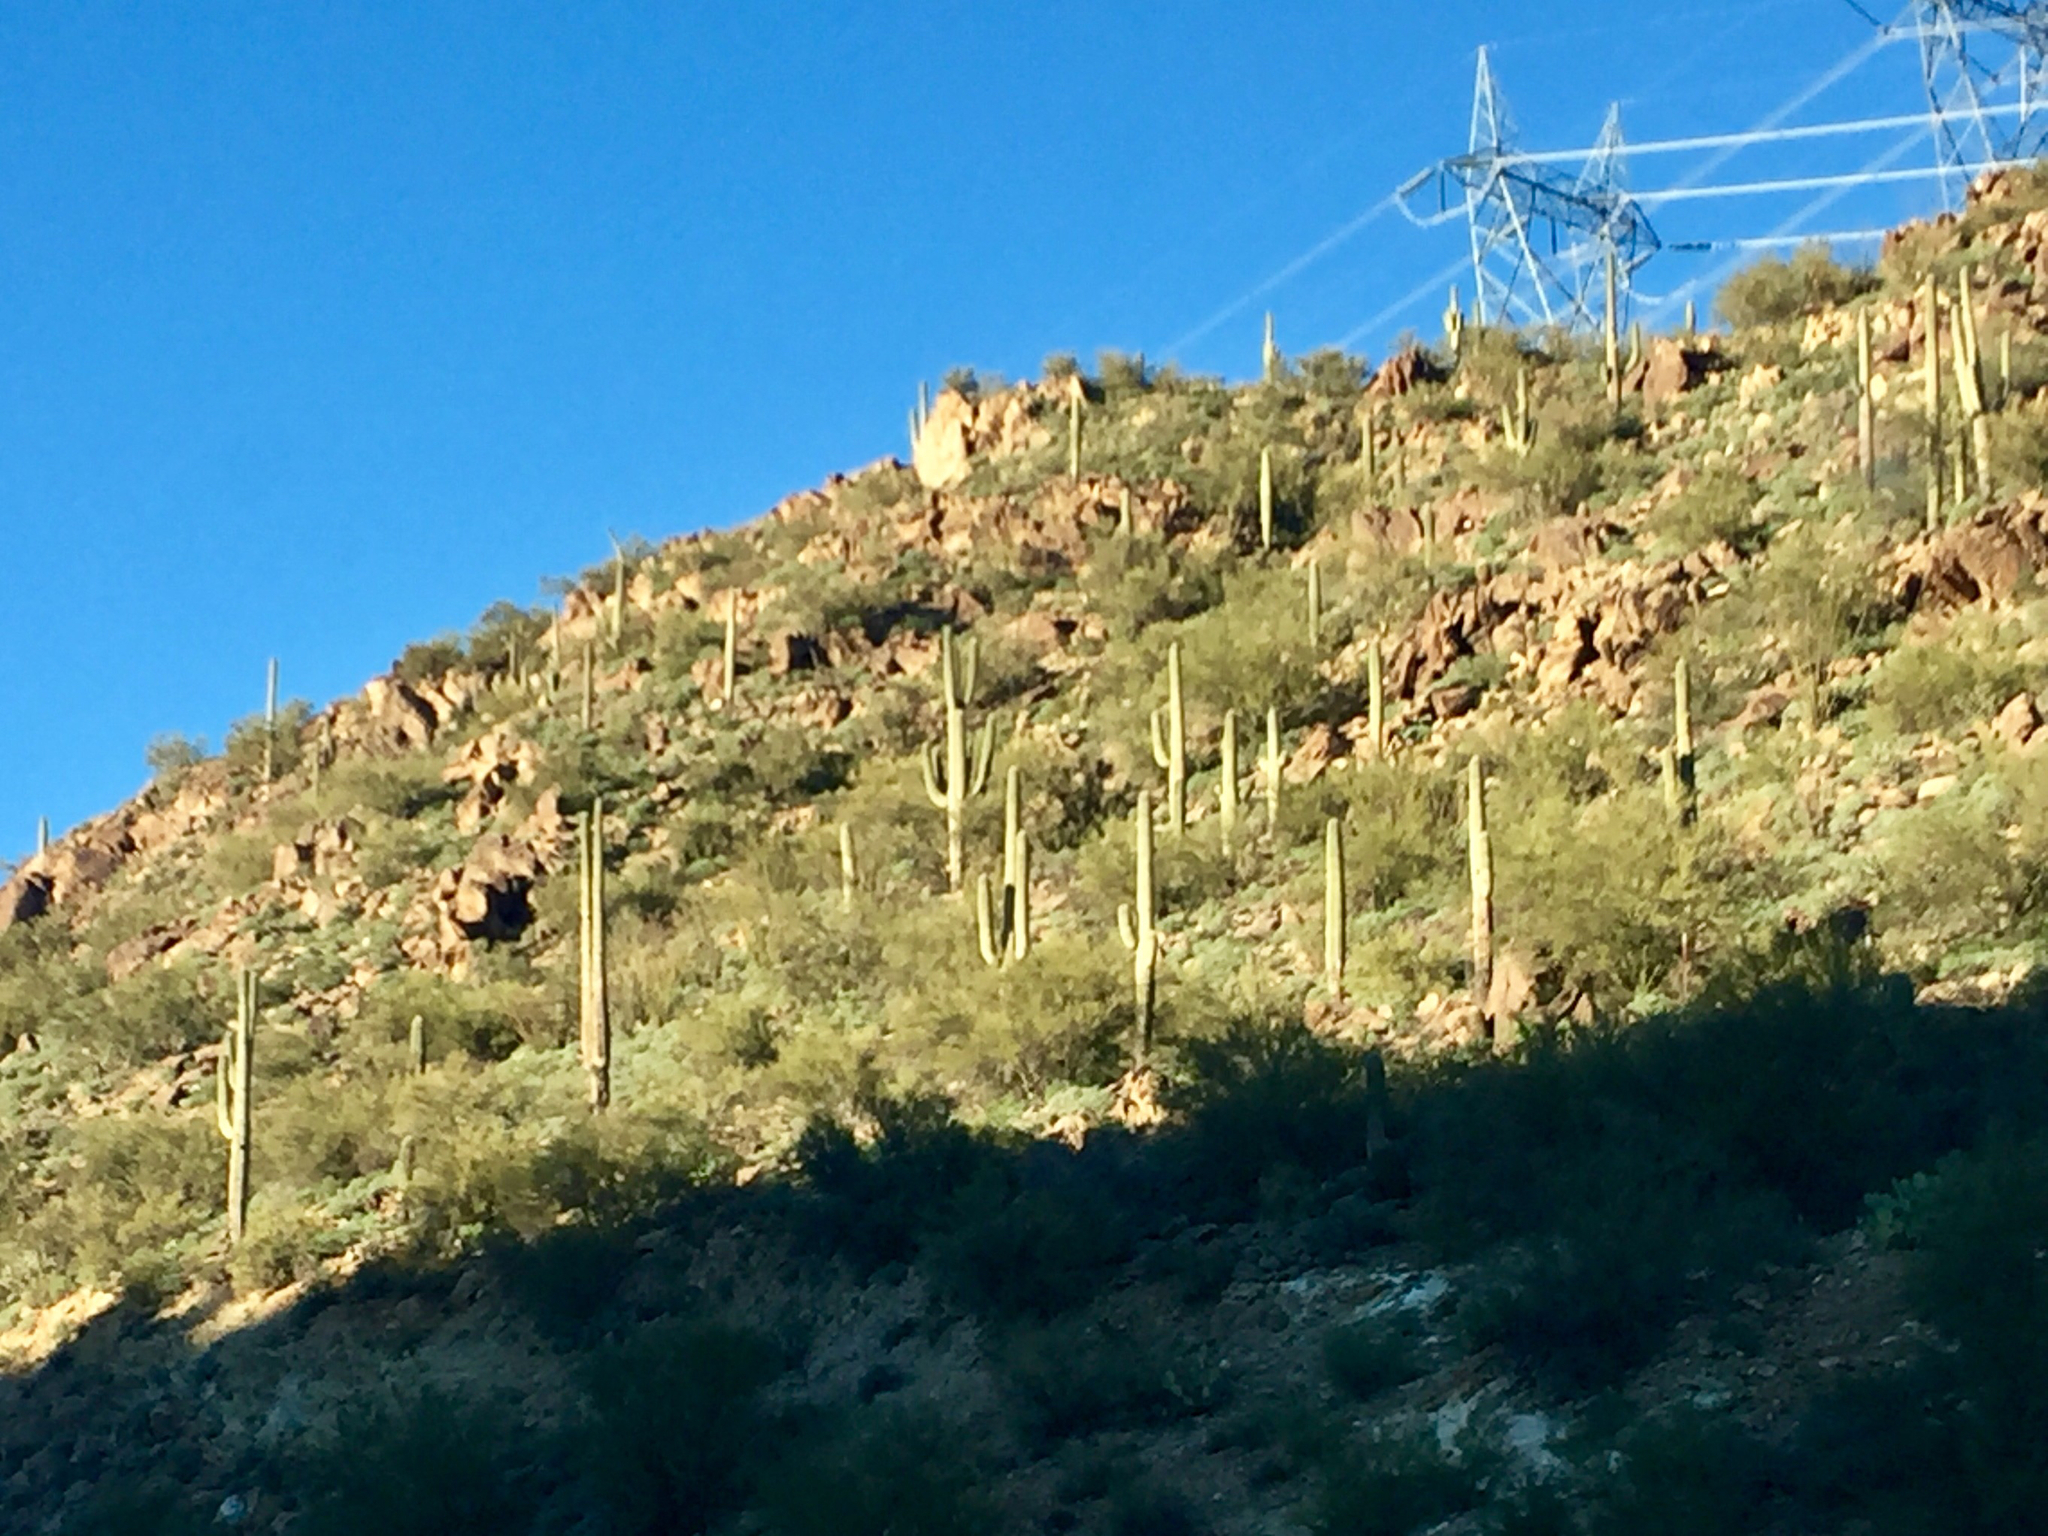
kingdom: Plantae
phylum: Tracheophyta
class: Magnoliopsida
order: Caryophyllales
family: Cactaceae
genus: Carnegiea
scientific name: Carnegiea gigantea
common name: Saguaro
